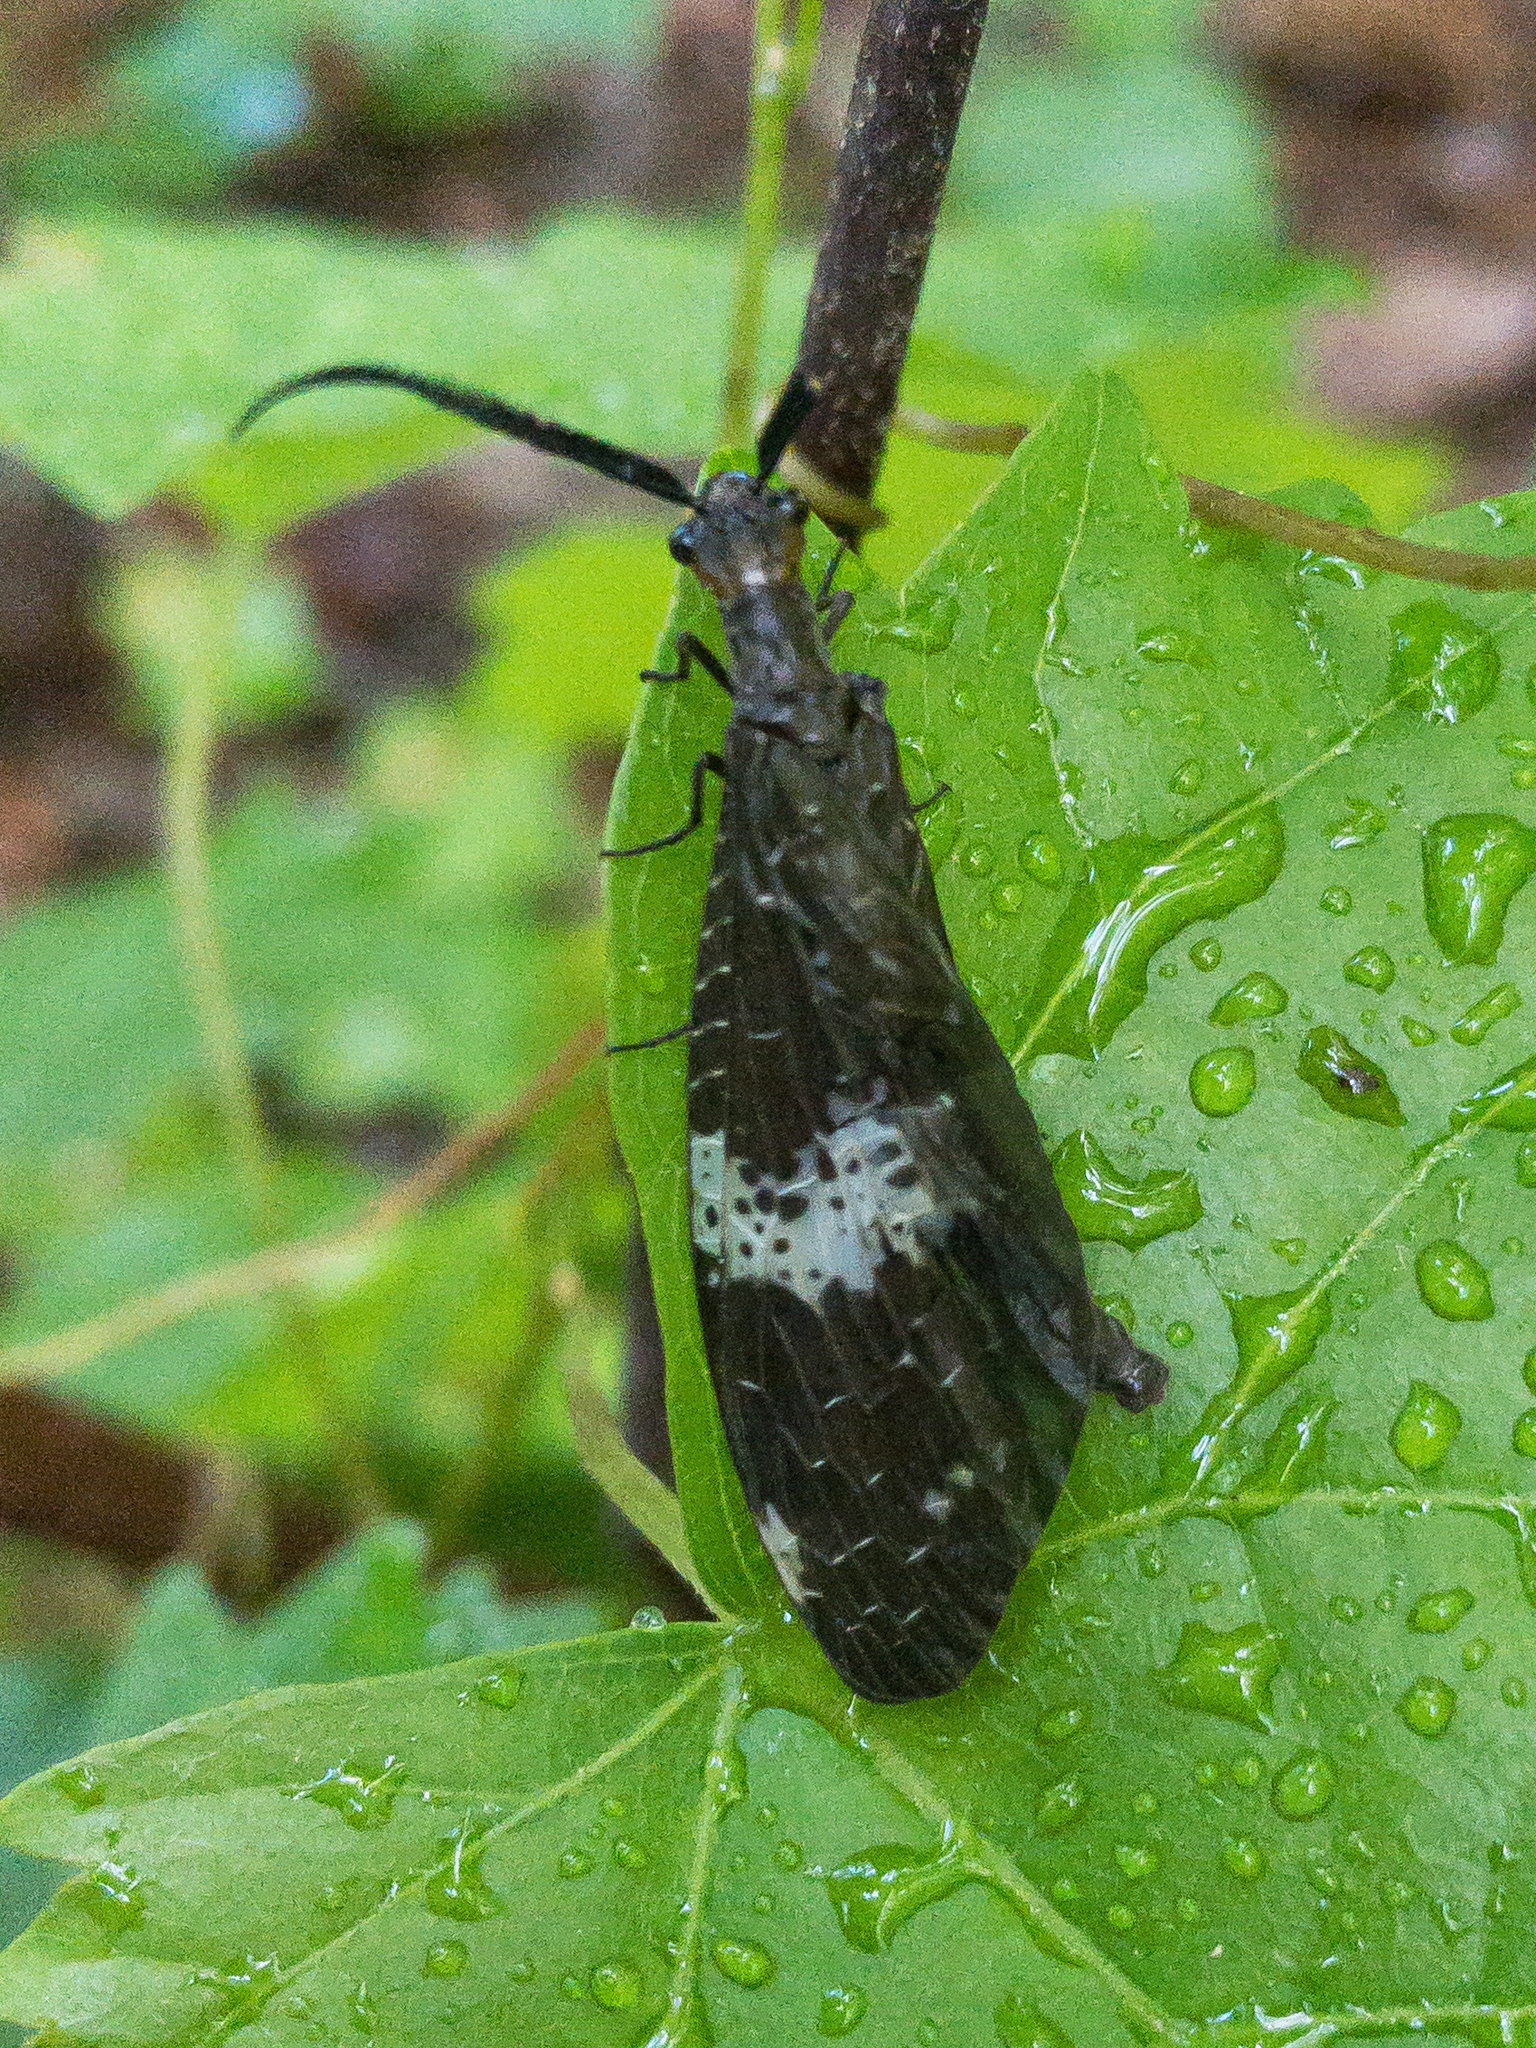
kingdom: Animalia
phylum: Arthropoda
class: Insecta
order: Megaloptera
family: Corydalidae
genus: Nigronia
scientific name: Nigronia fasciata
